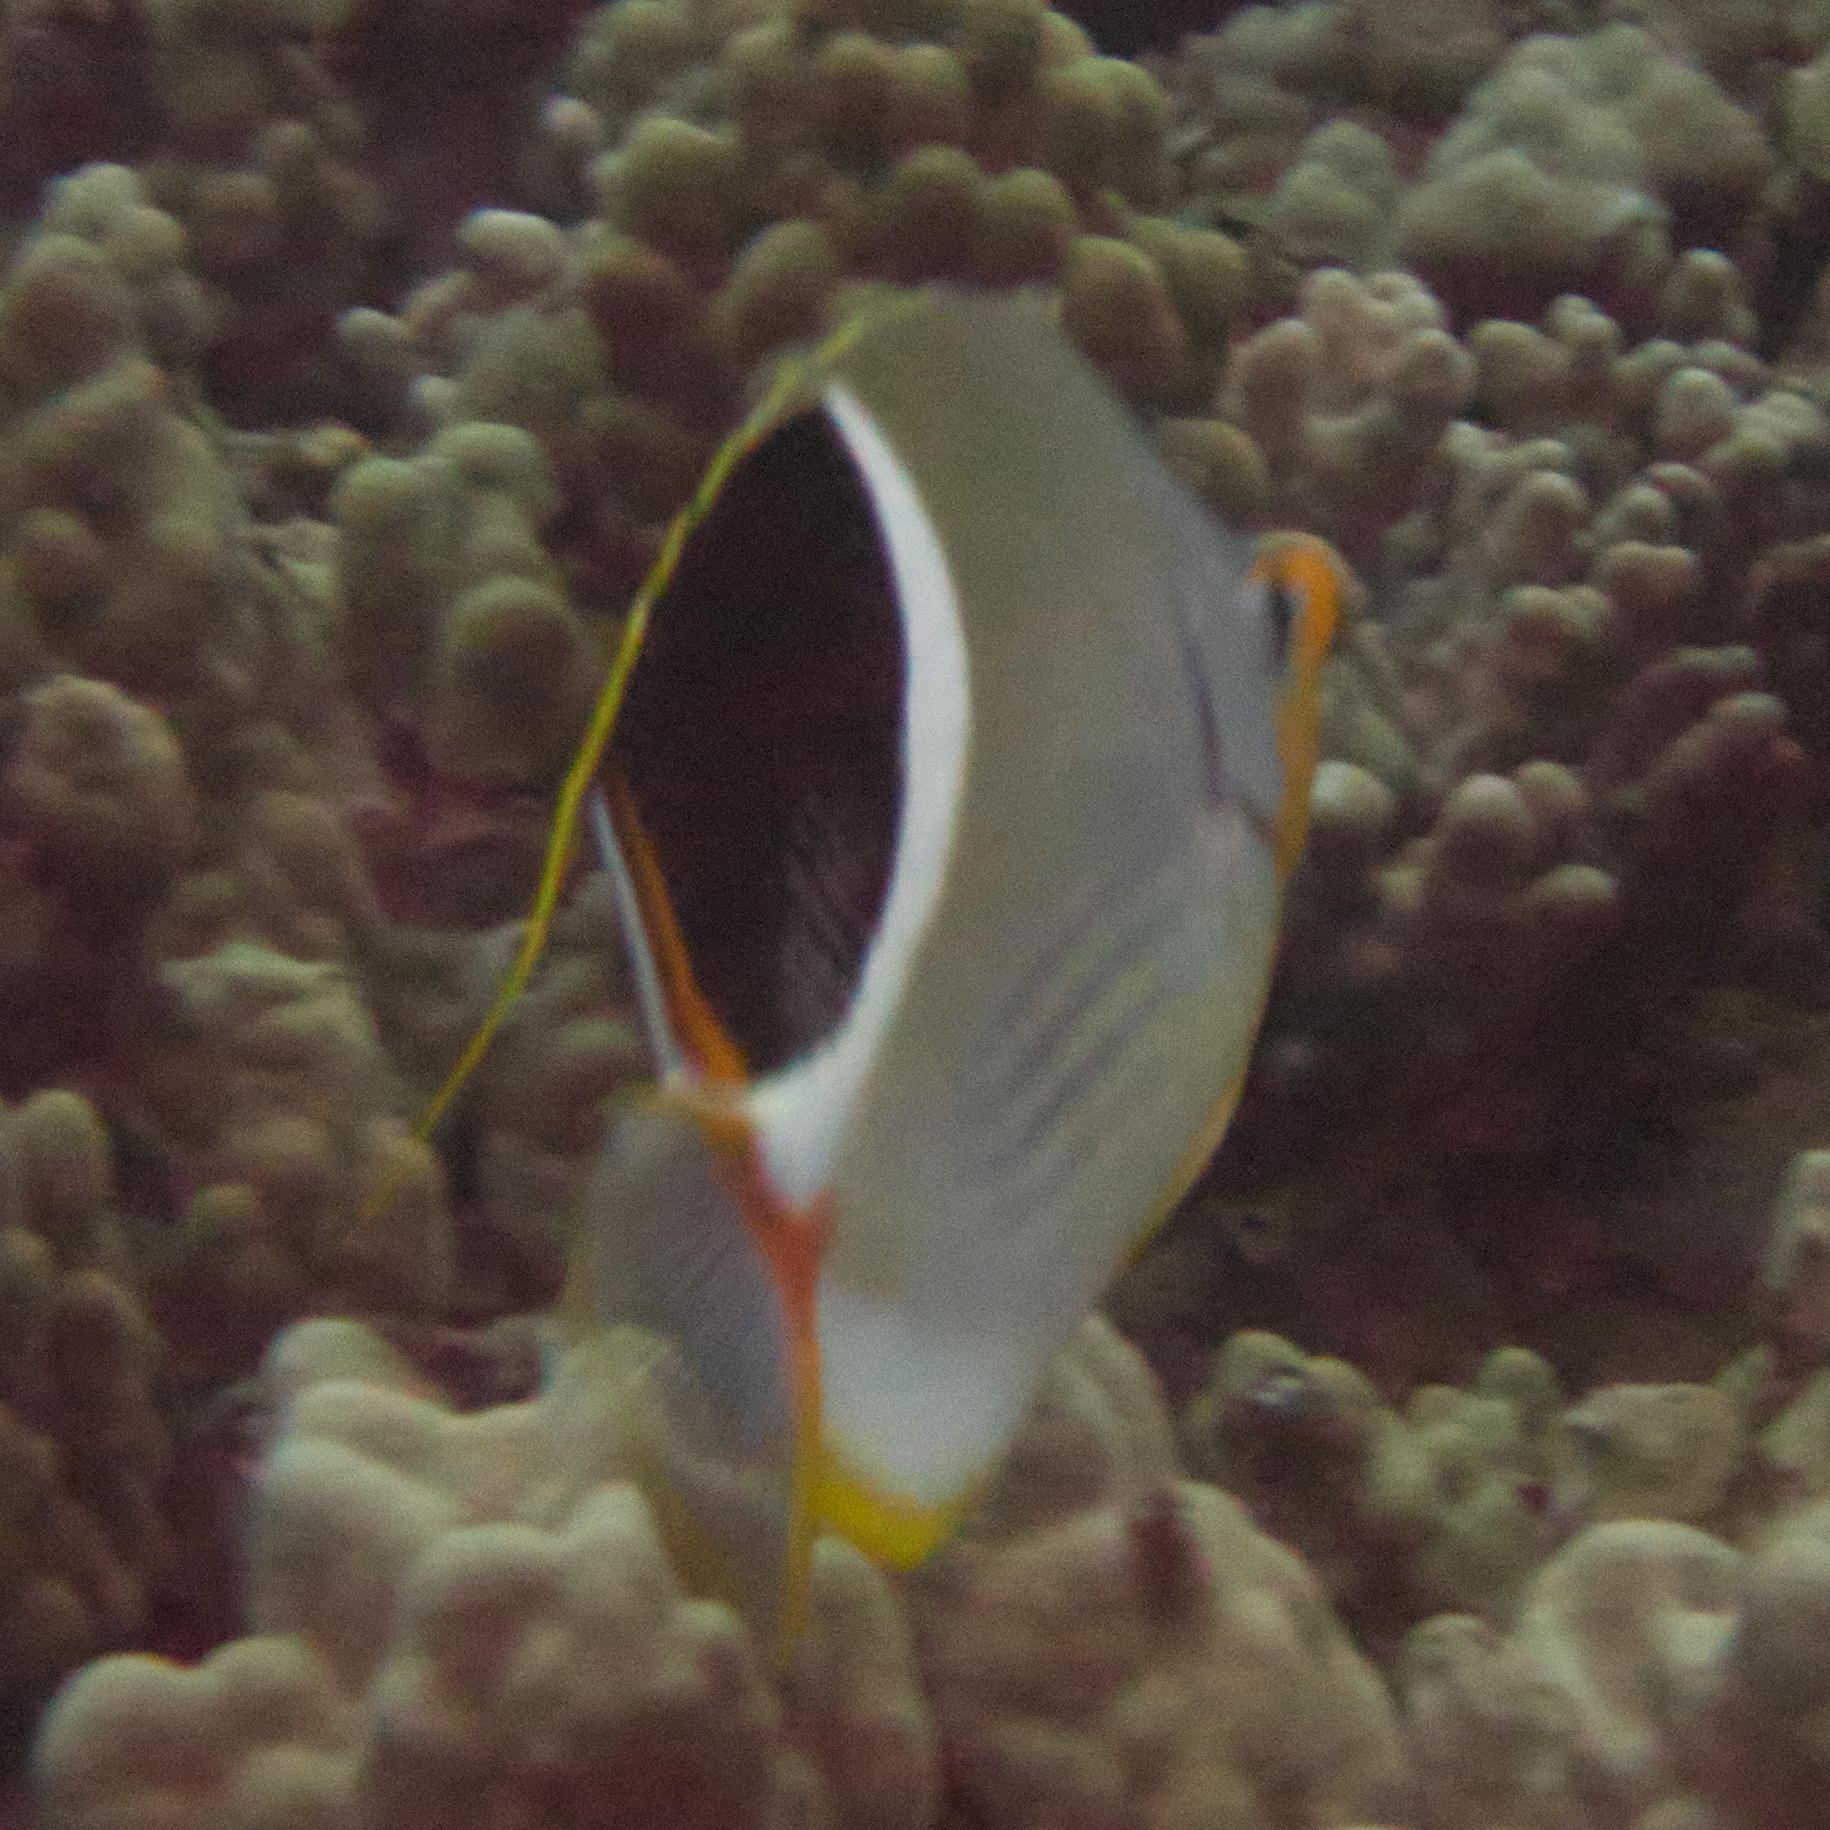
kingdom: Animalia
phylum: Chordata
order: Perciformes
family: Chaetodontidae
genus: Chaetodon
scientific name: Chaetodon ephippium
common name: Saddled butterflyfish
